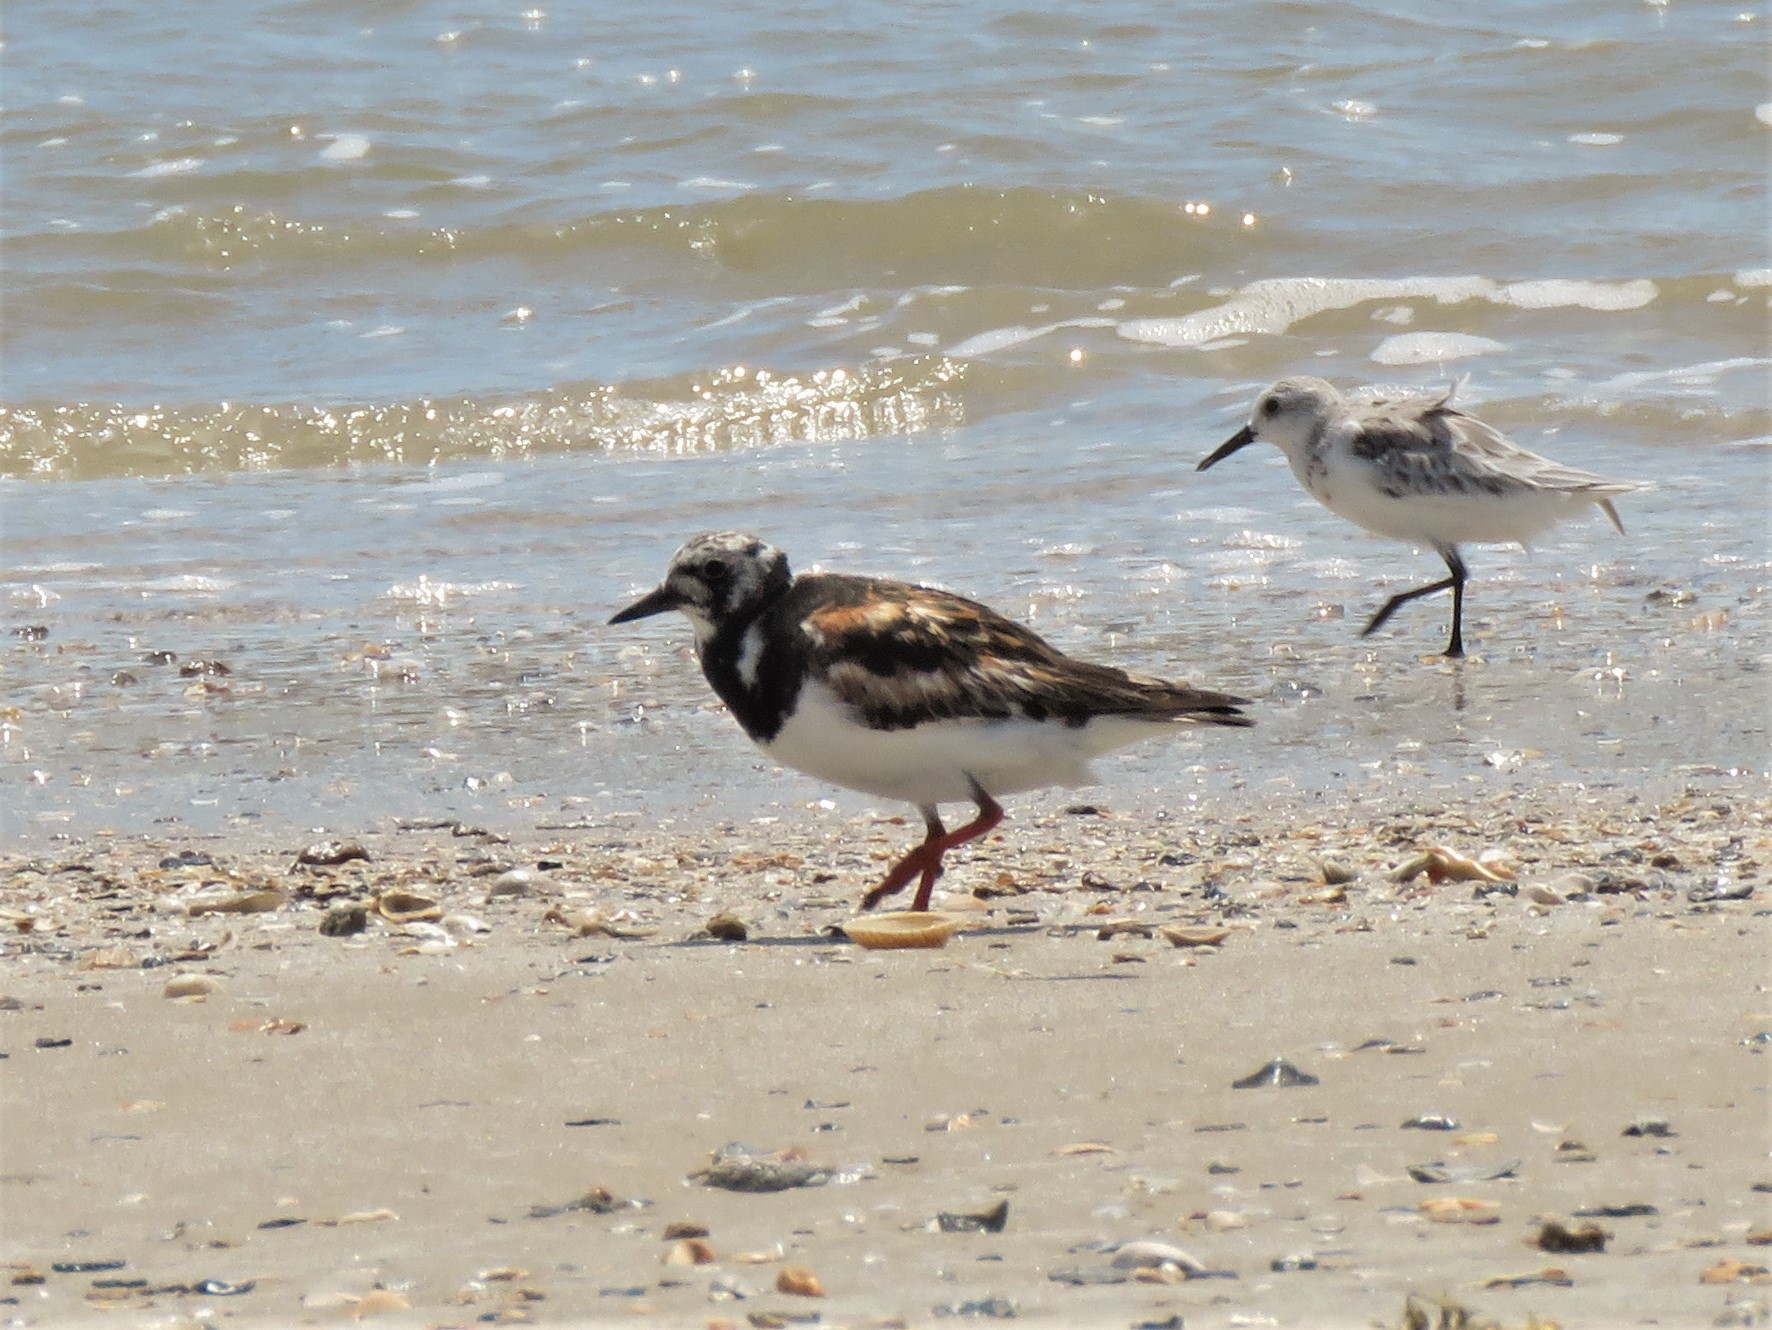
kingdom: Animalia
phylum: Chordata
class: Aves
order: Charadriiformes
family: Scolopacidae
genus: Arenaria
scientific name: Arenaria interpres
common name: Ruddy turnstone
